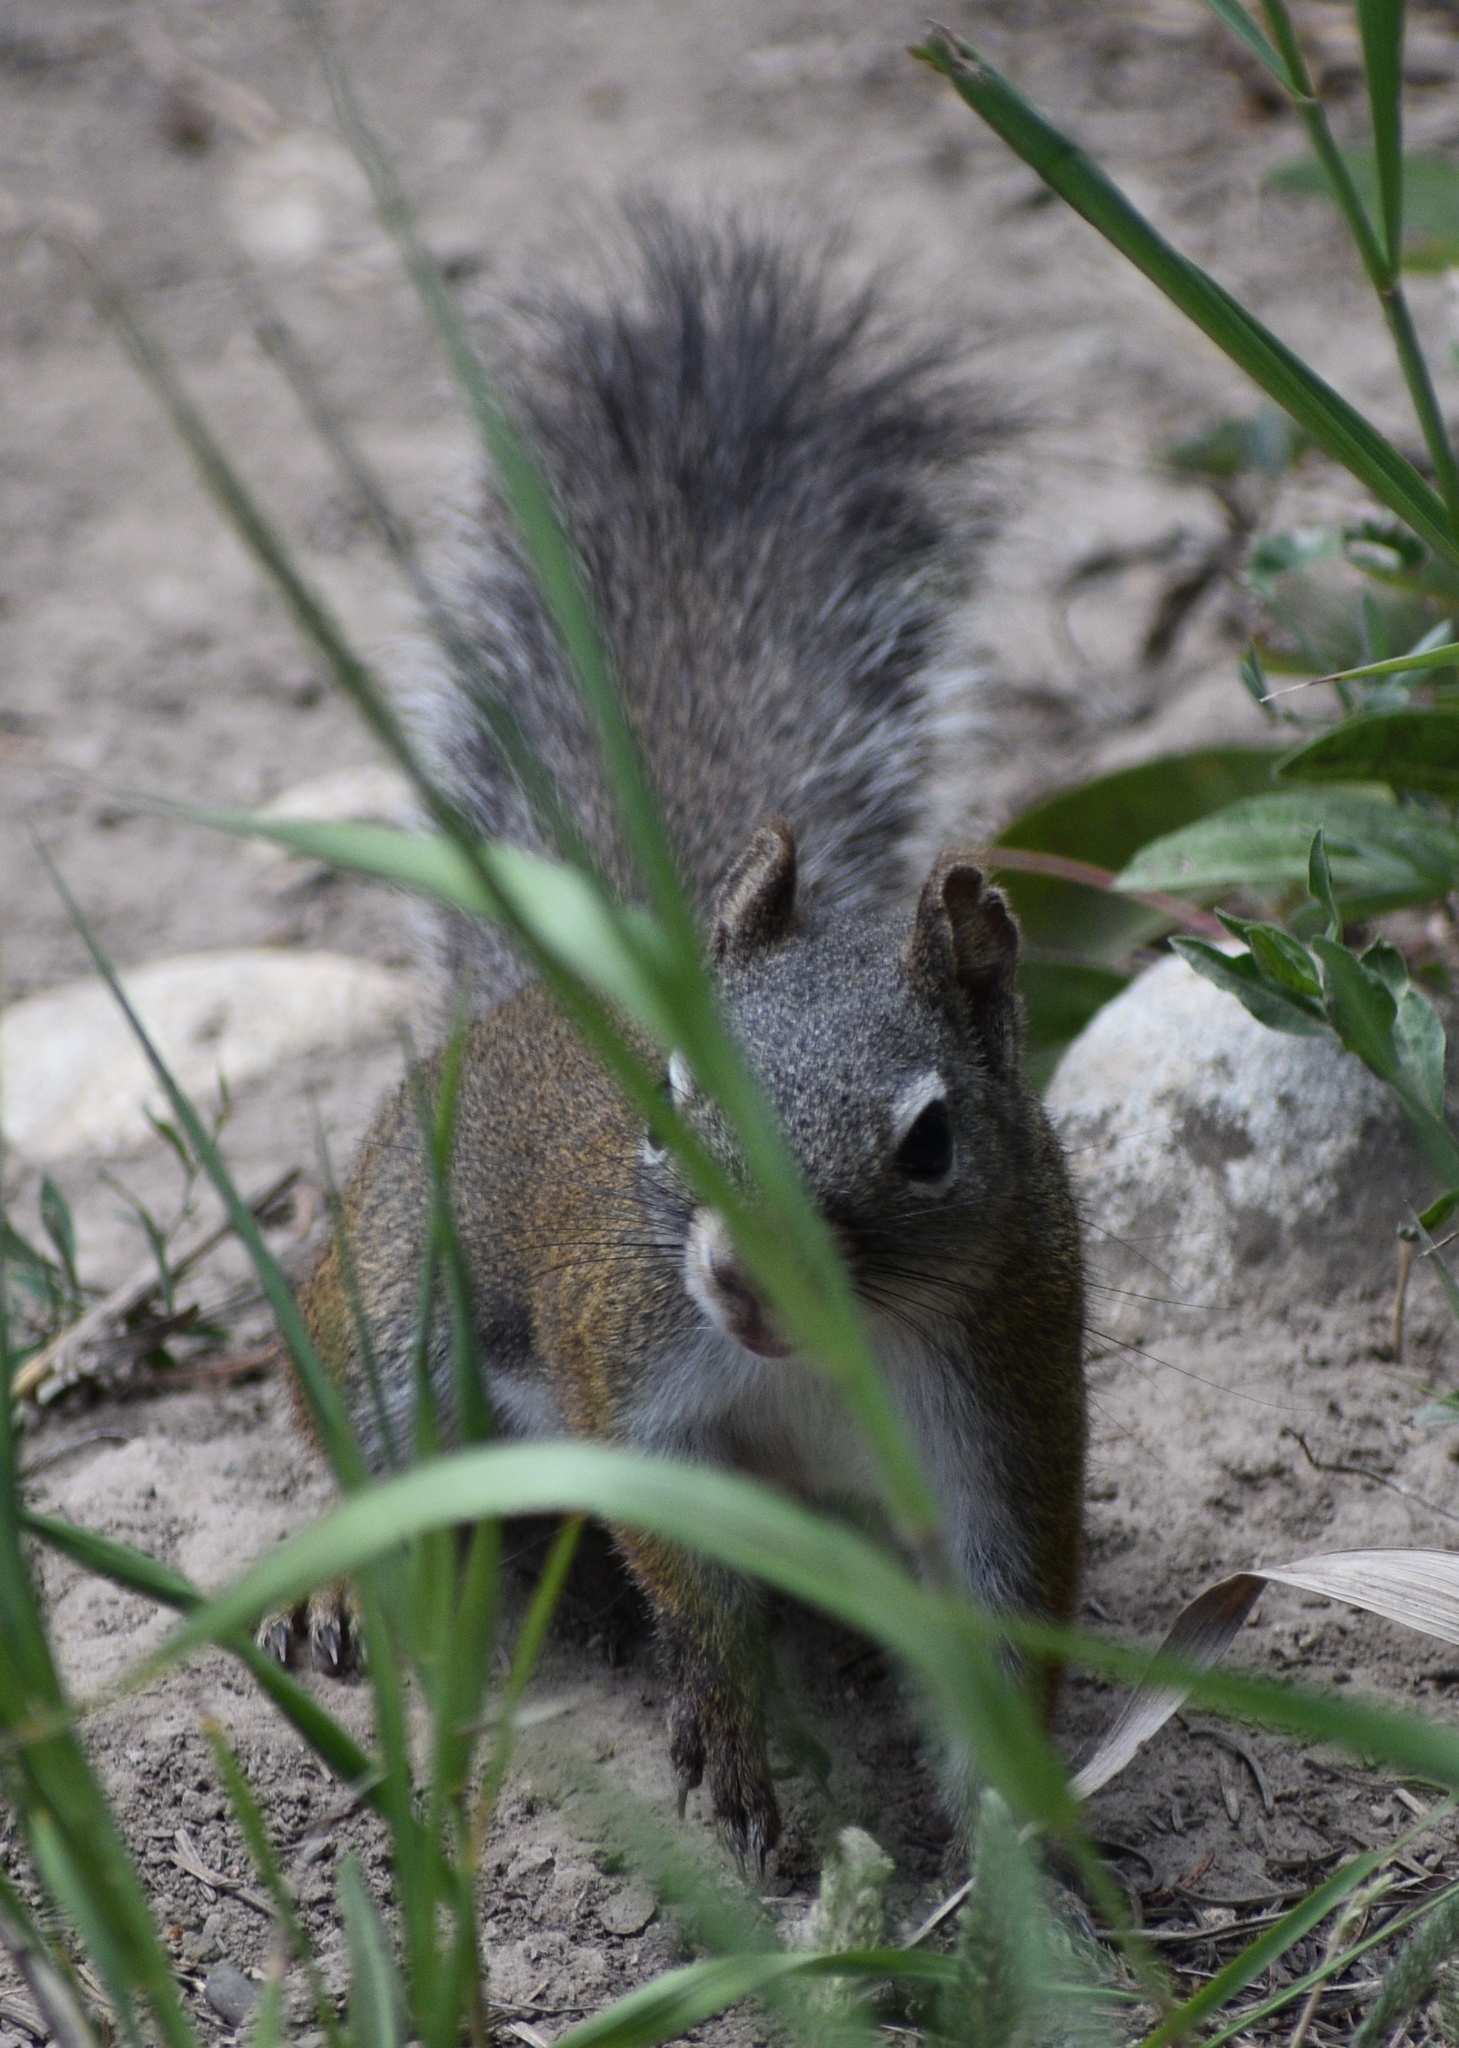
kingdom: Animalia
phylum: Chordata
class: Mammalia
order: Rodentia
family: Sciuridae
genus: Tamiasciurus
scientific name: Tamiasciurus hudsonicus
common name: Red squirrel
